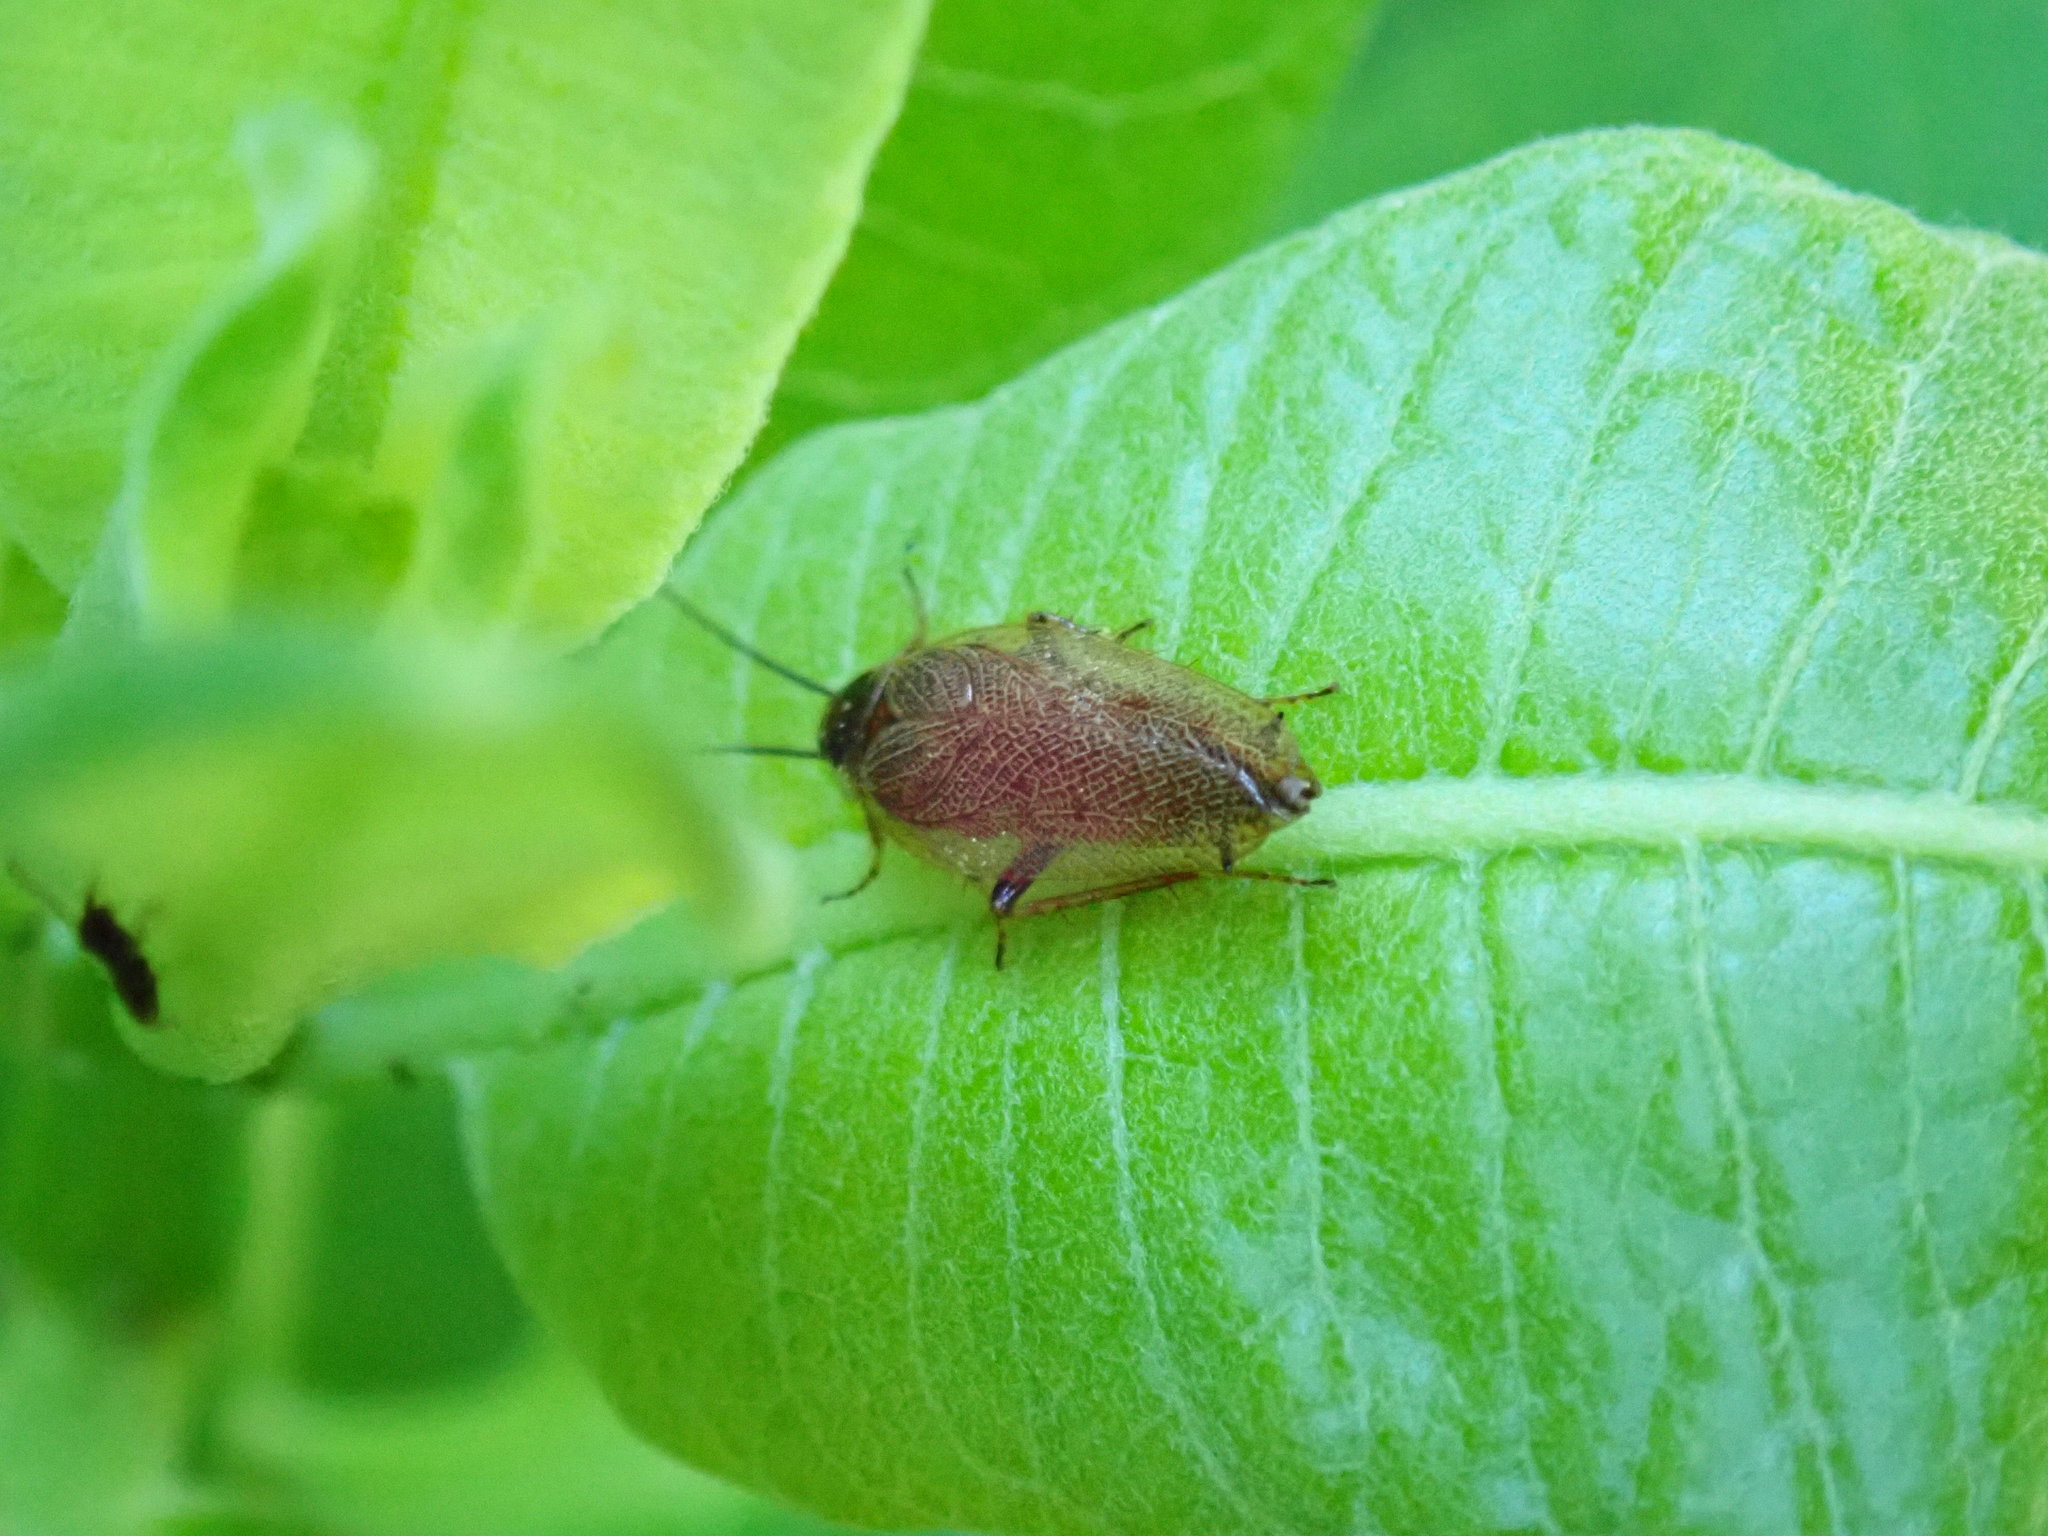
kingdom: Animalia
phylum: Arthropoda
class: Insecta
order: Blattodea
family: Ectobiidae
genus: Ectobius
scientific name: Ectobius lapponicus
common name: Dusky cockroach
